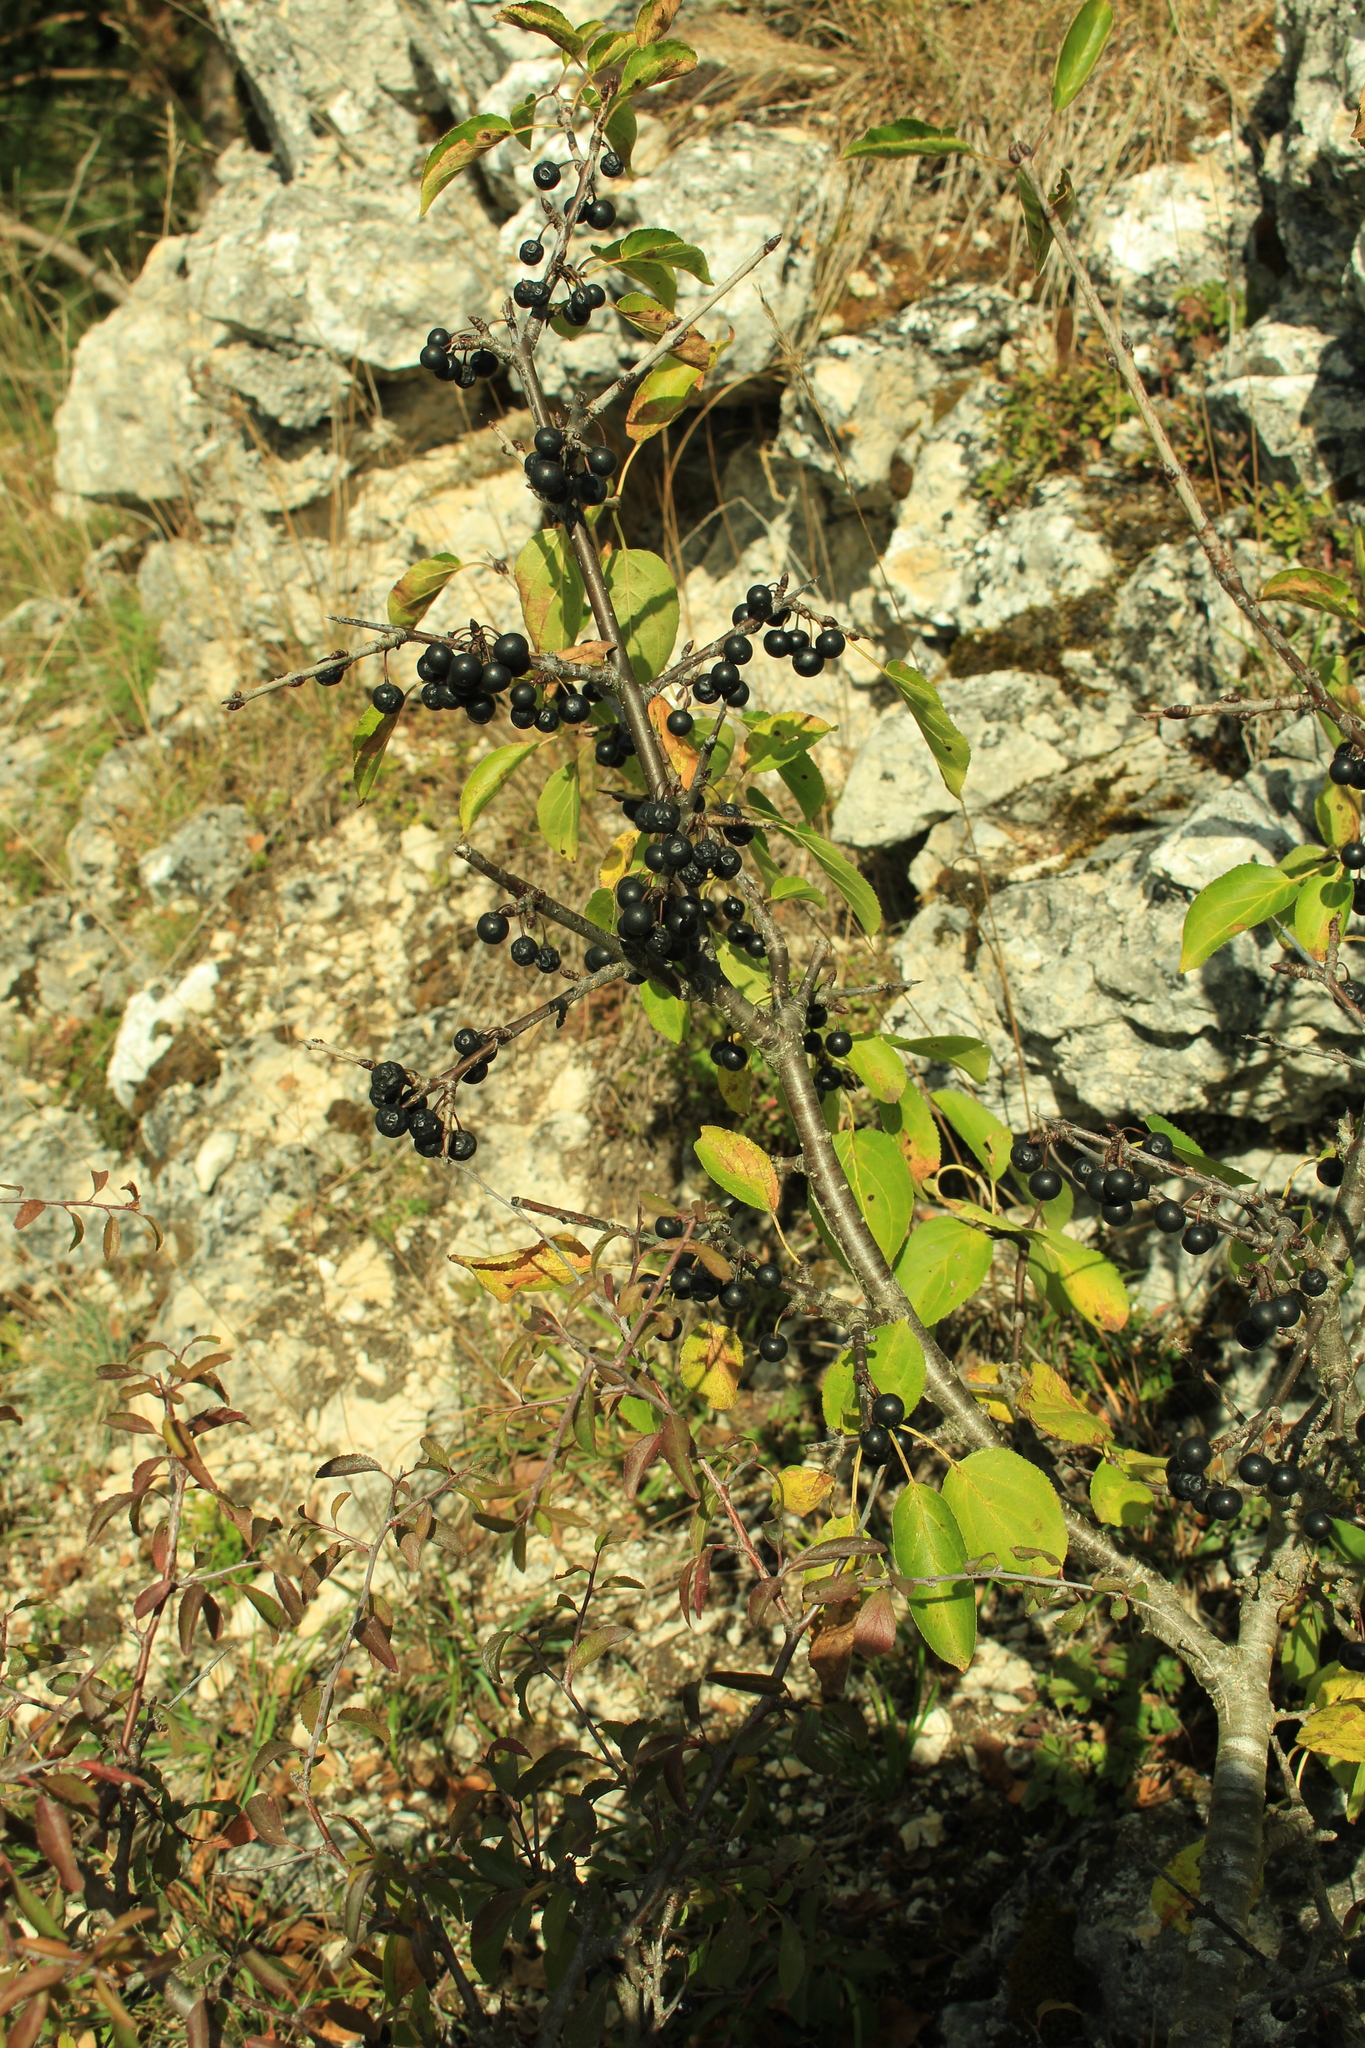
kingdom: Plantae
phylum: Tracheophyta
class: Magnoliopsida
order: Rosales
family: Rhamnaceae
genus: Rhamnus
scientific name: Rhamnus cathartica
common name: Common buckthorn
